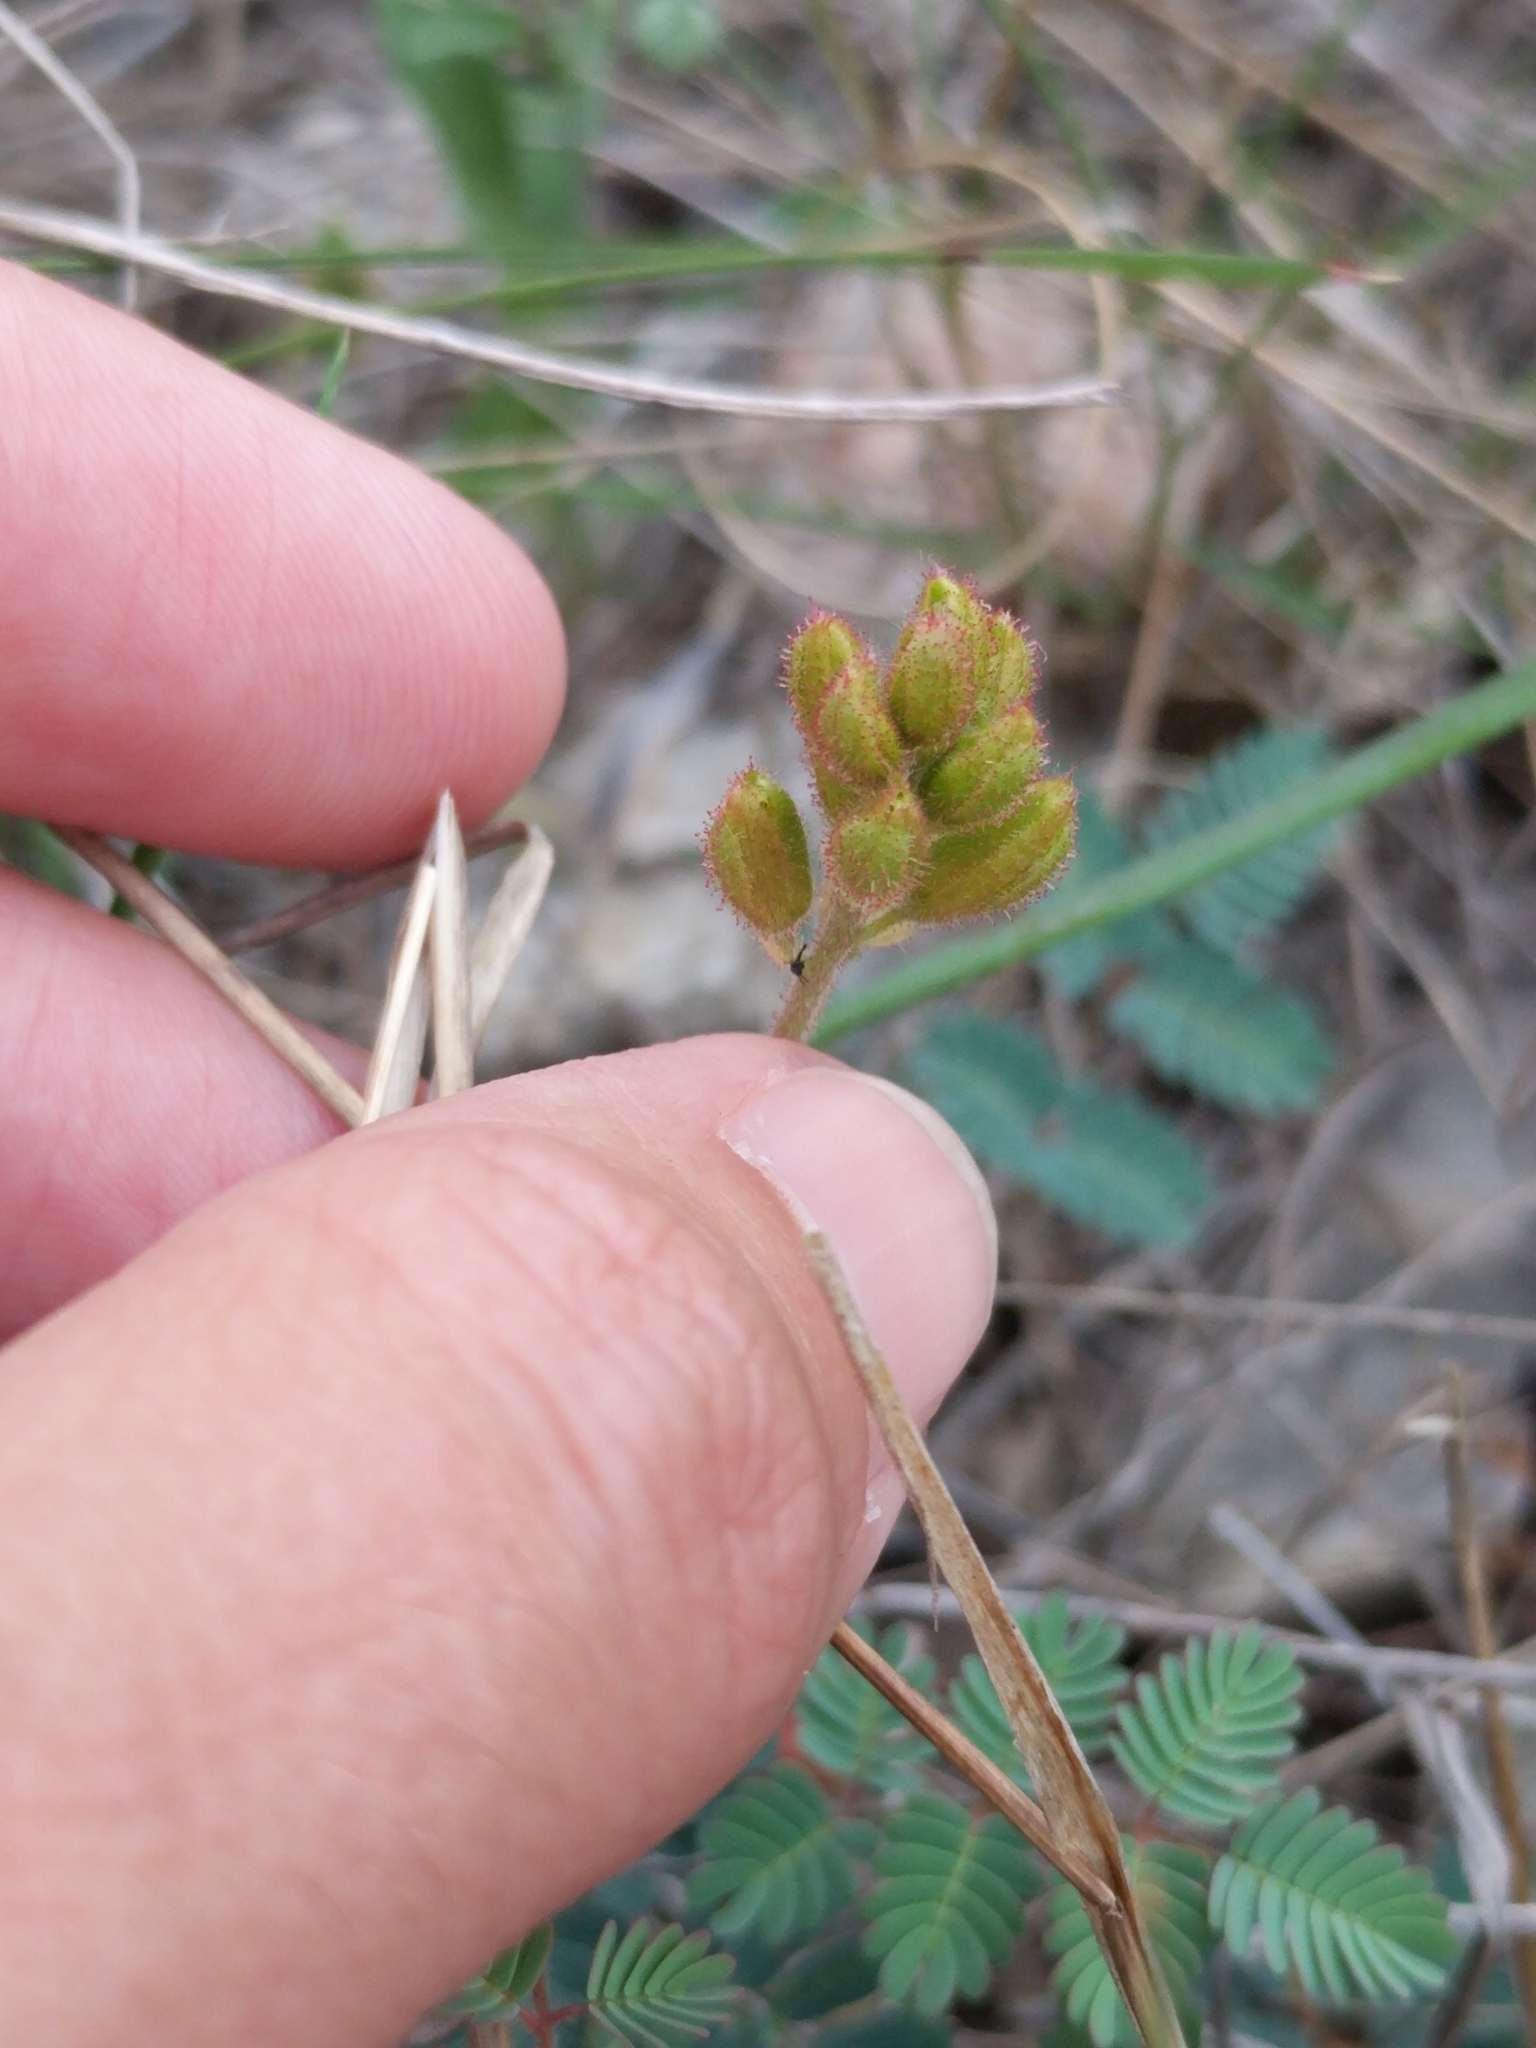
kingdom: Plantae
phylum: Tracheophyta
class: Magnoliopsida
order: Fabales
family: Fabaceae
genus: Hoffmannseggia
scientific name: Hoffmannseggia oxycarpa
